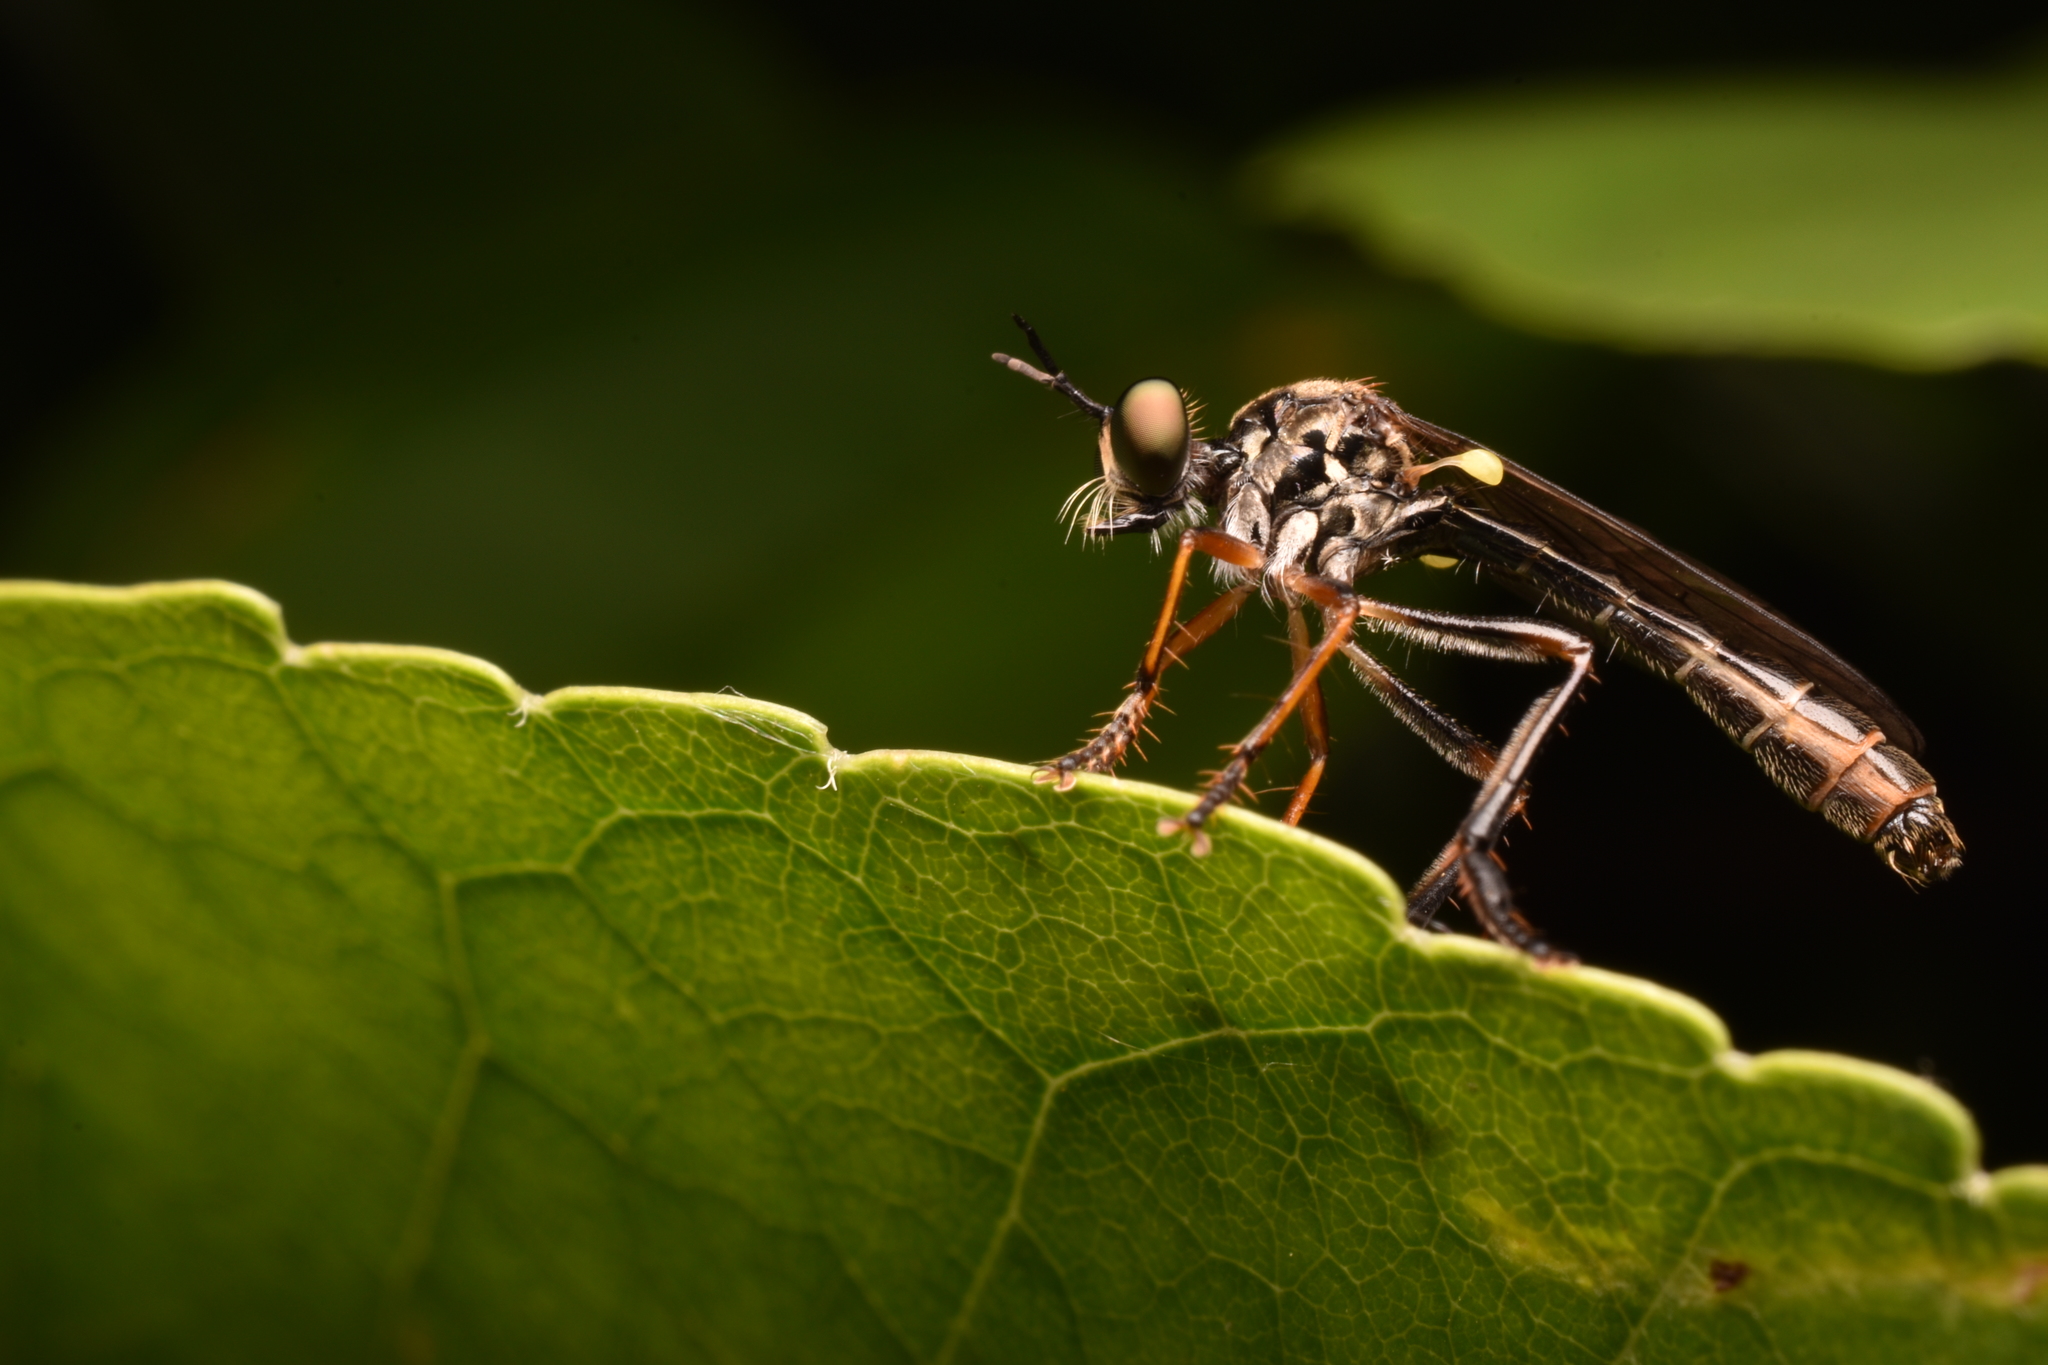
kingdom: Animalia
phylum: Arthropoda
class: Insecta
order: Diptera
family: Asilidae
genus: Dioctria
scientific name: Dioctria hyalipennis
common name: Stripe-legged robberfly
